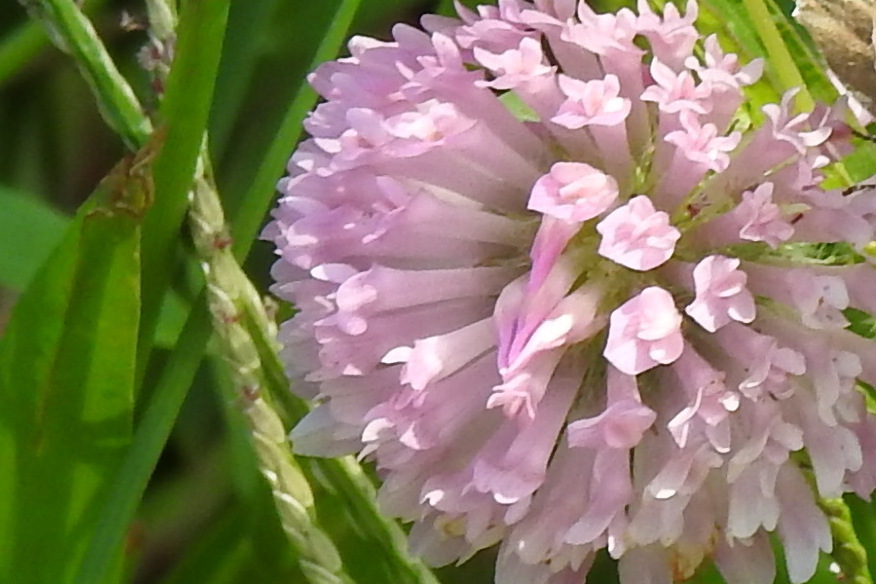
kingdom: Plantae
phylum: Tracheophyta
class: Magnoliopsida
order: Fabales
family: Fabaceae
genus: Trifolium
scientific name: Trifolium pratense
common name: Red clover
